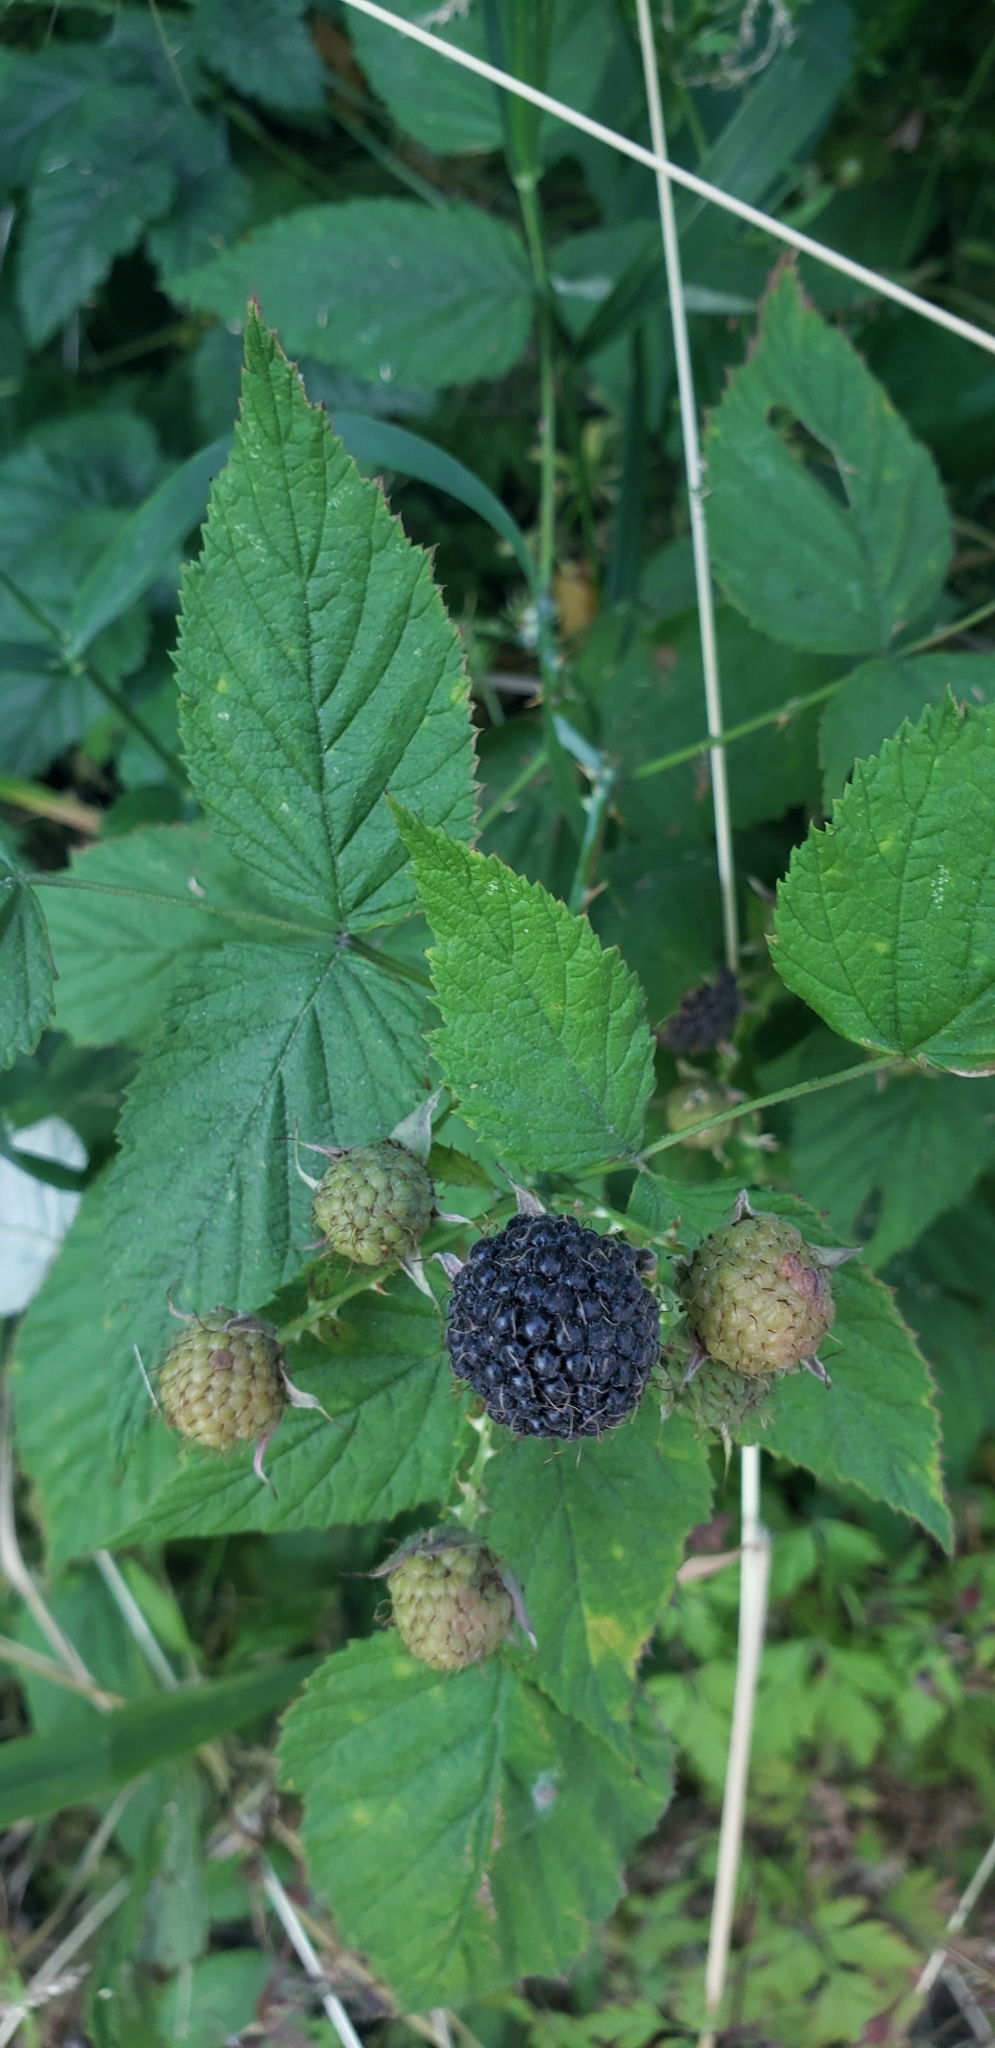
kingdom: Plantae
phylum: Tracheophyta
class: Magnoliopsida
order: Rosales
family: Rosaceae
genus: Rubus
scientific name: Rubus leucodermis
